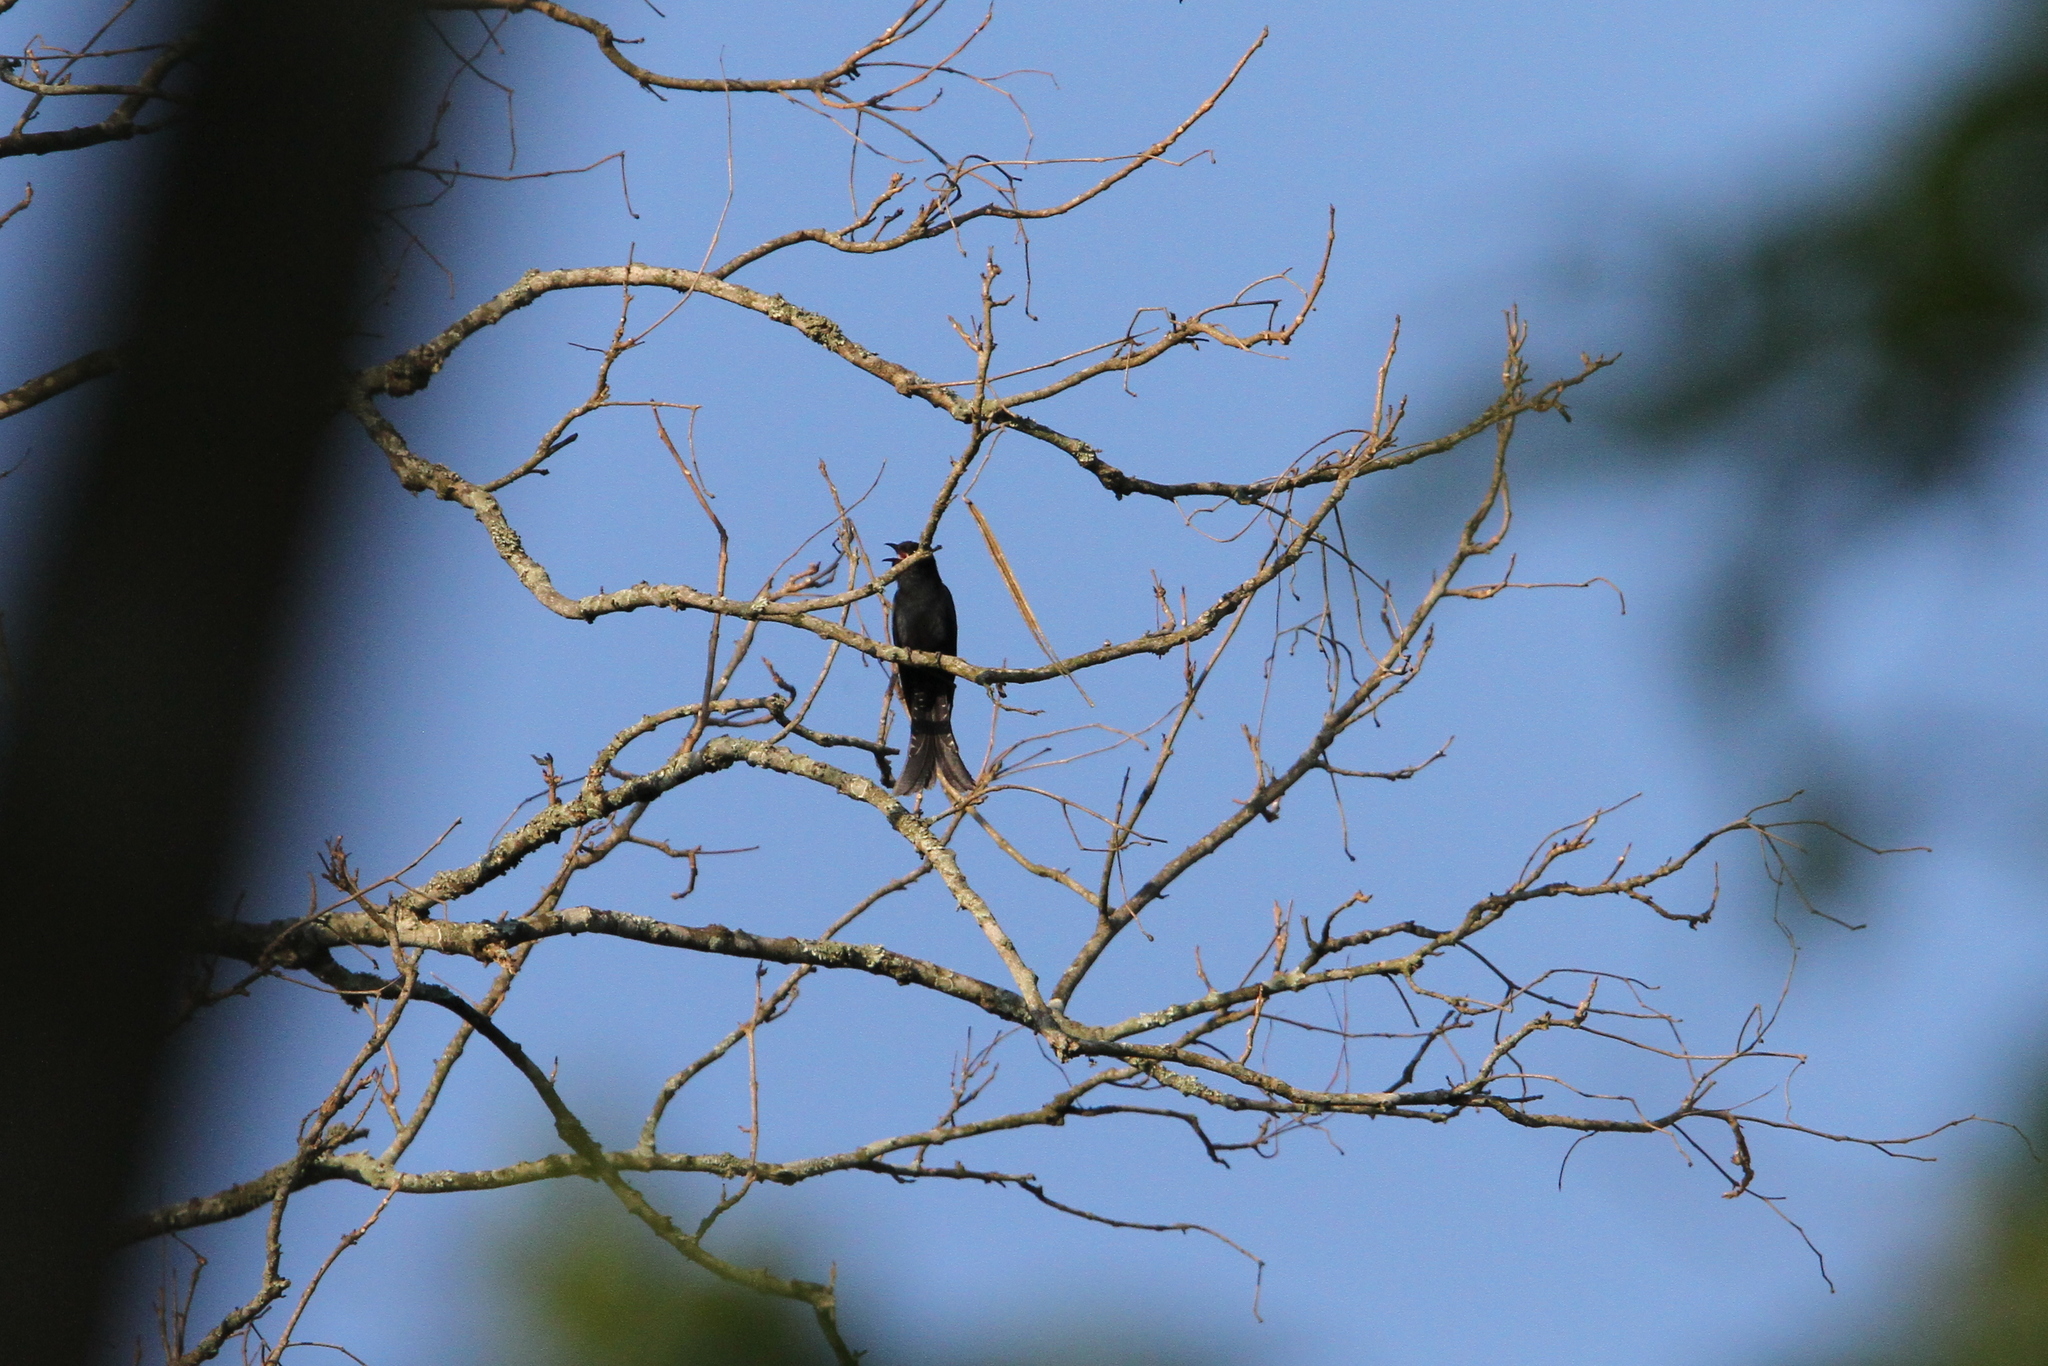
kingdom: Animalia
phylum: Chordata
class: Aves
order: Cuculiformes
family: Cuculidae
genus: Surniculus
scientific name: Surniculus lugubris
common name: Square-tailed drongo-cuckoo
